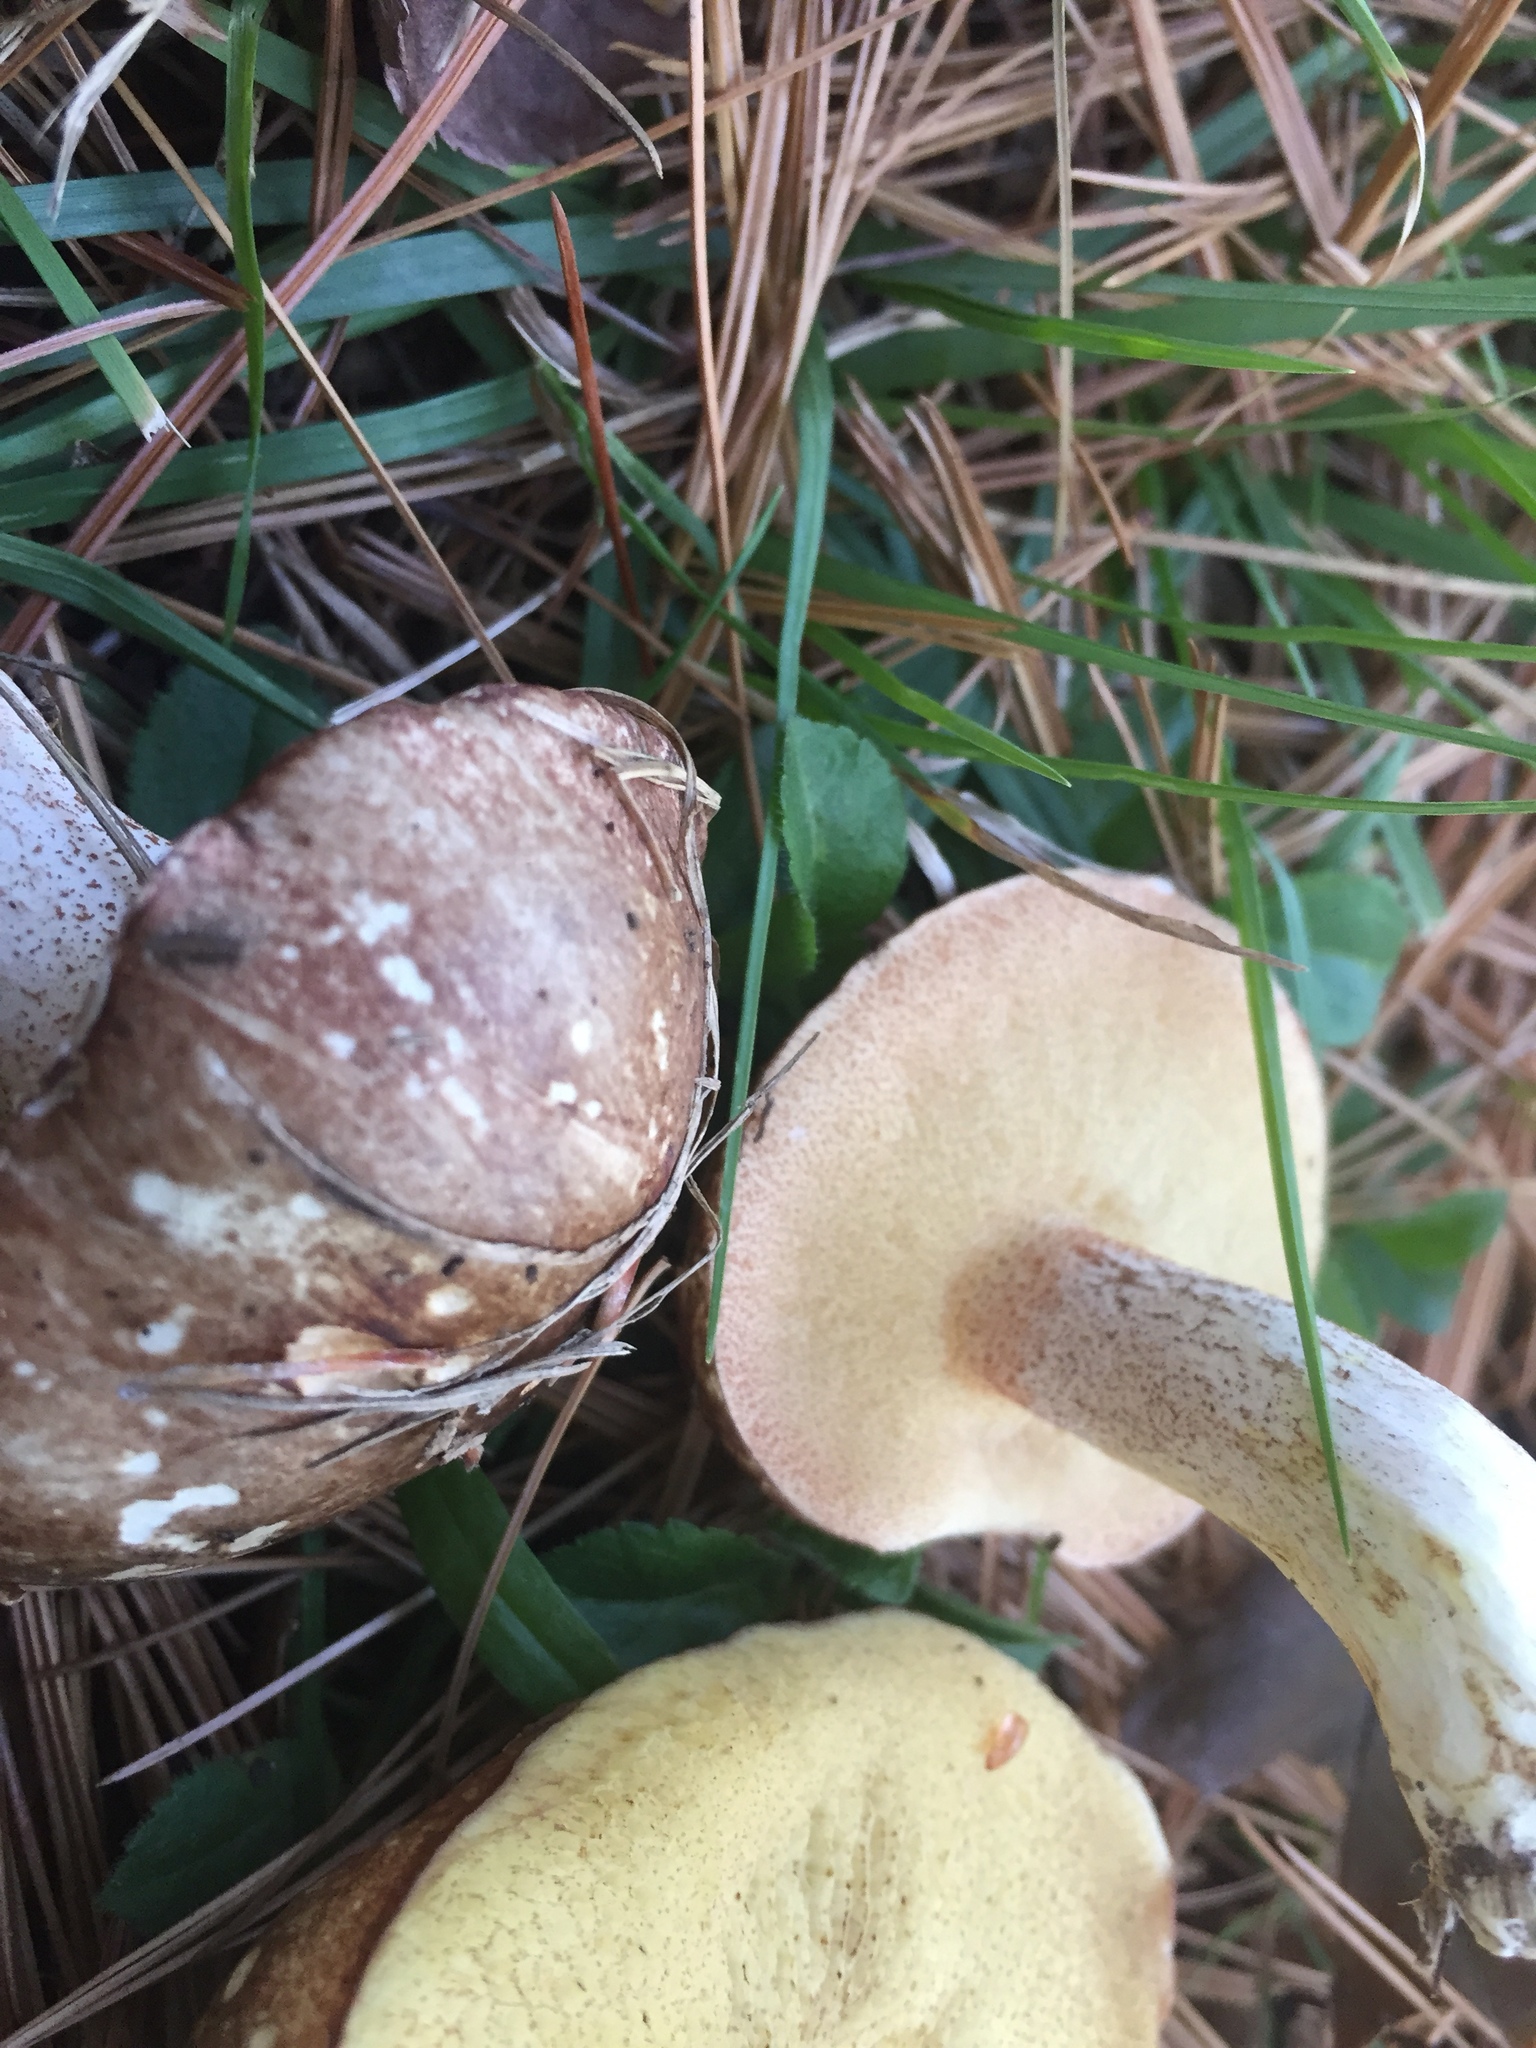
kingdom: Fungi
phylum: Basidiomycota
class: Agaricomycetes
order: Boletales
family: Suillaceae
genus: Suillus
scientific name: Suillus granulatus
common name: Weeping bolete
